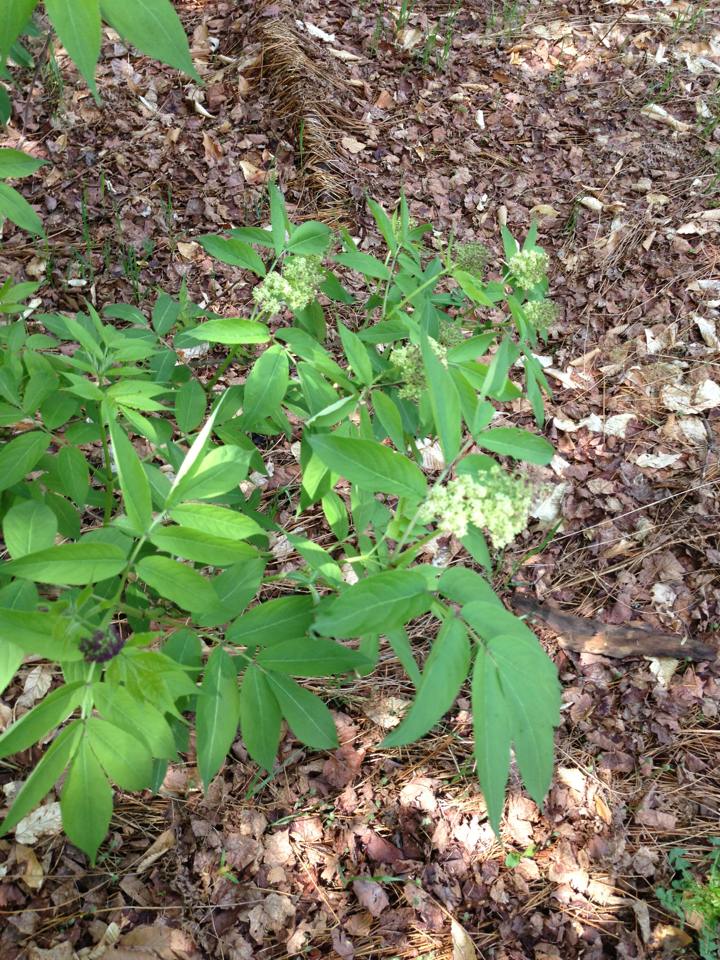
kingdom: Plantae
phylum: Tracheophyta
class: Magnoliopsida
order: Dipsacales
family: Viburnaceae
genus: Sambucus
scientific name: Sambucus racemosa
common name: Red-berried elder
